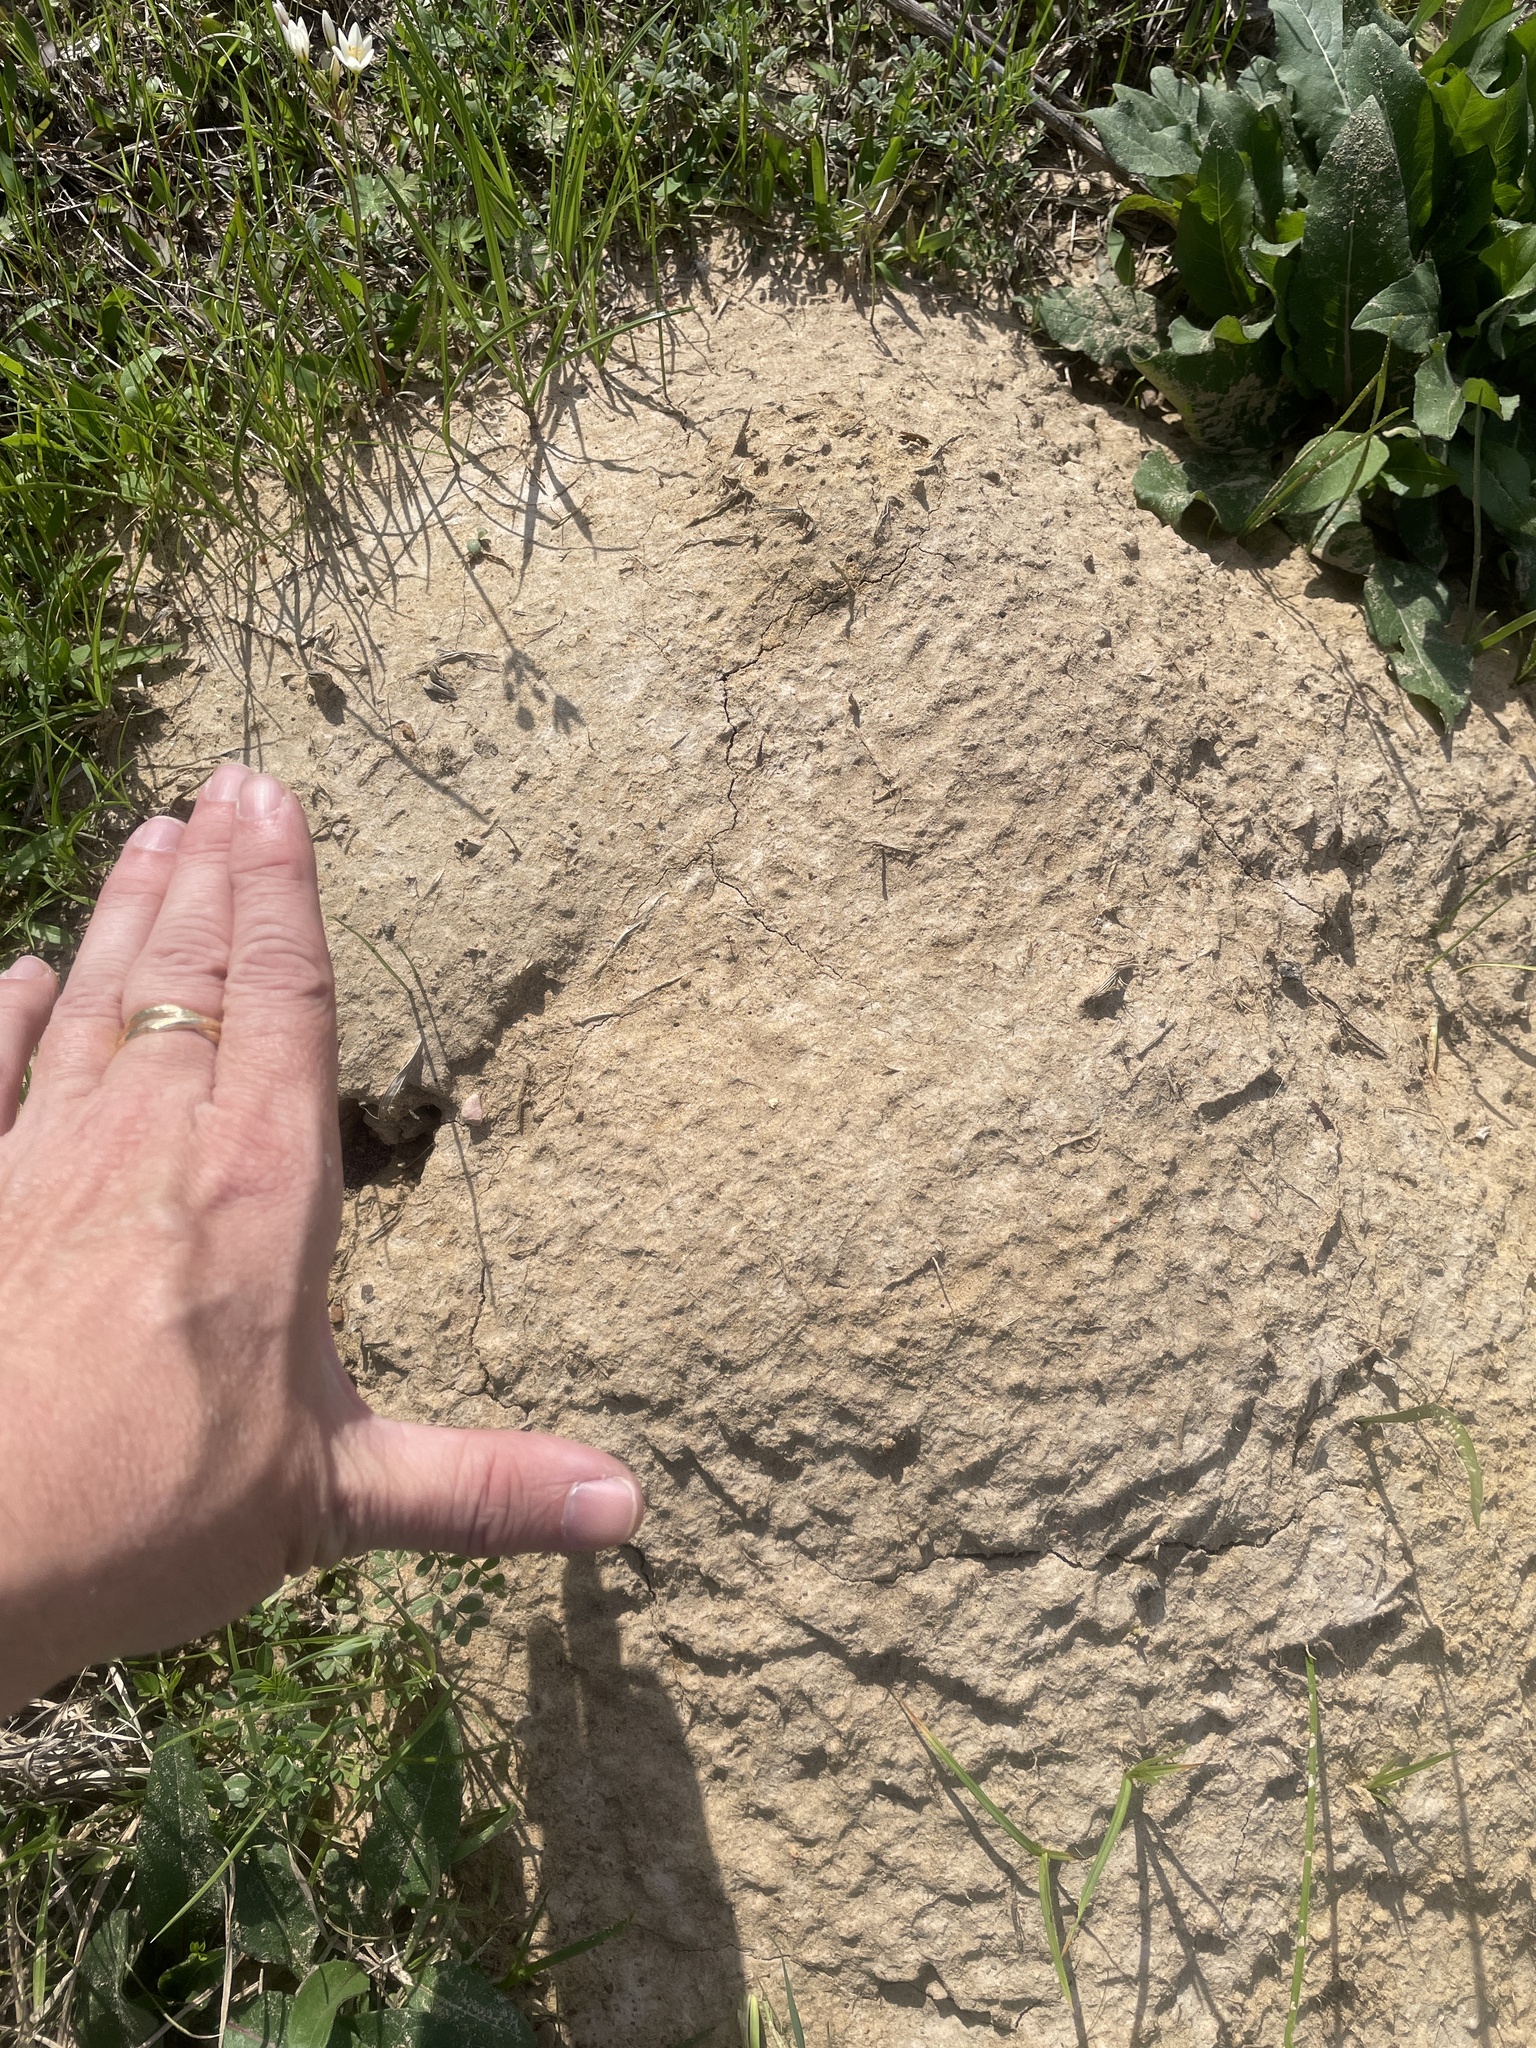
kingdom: Animalia
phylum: Chordata
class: Mammalia
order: Rodentia
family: Geomyidae
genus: Geomys
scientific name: Geomys breviceps
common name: Baird's pocket gopher
